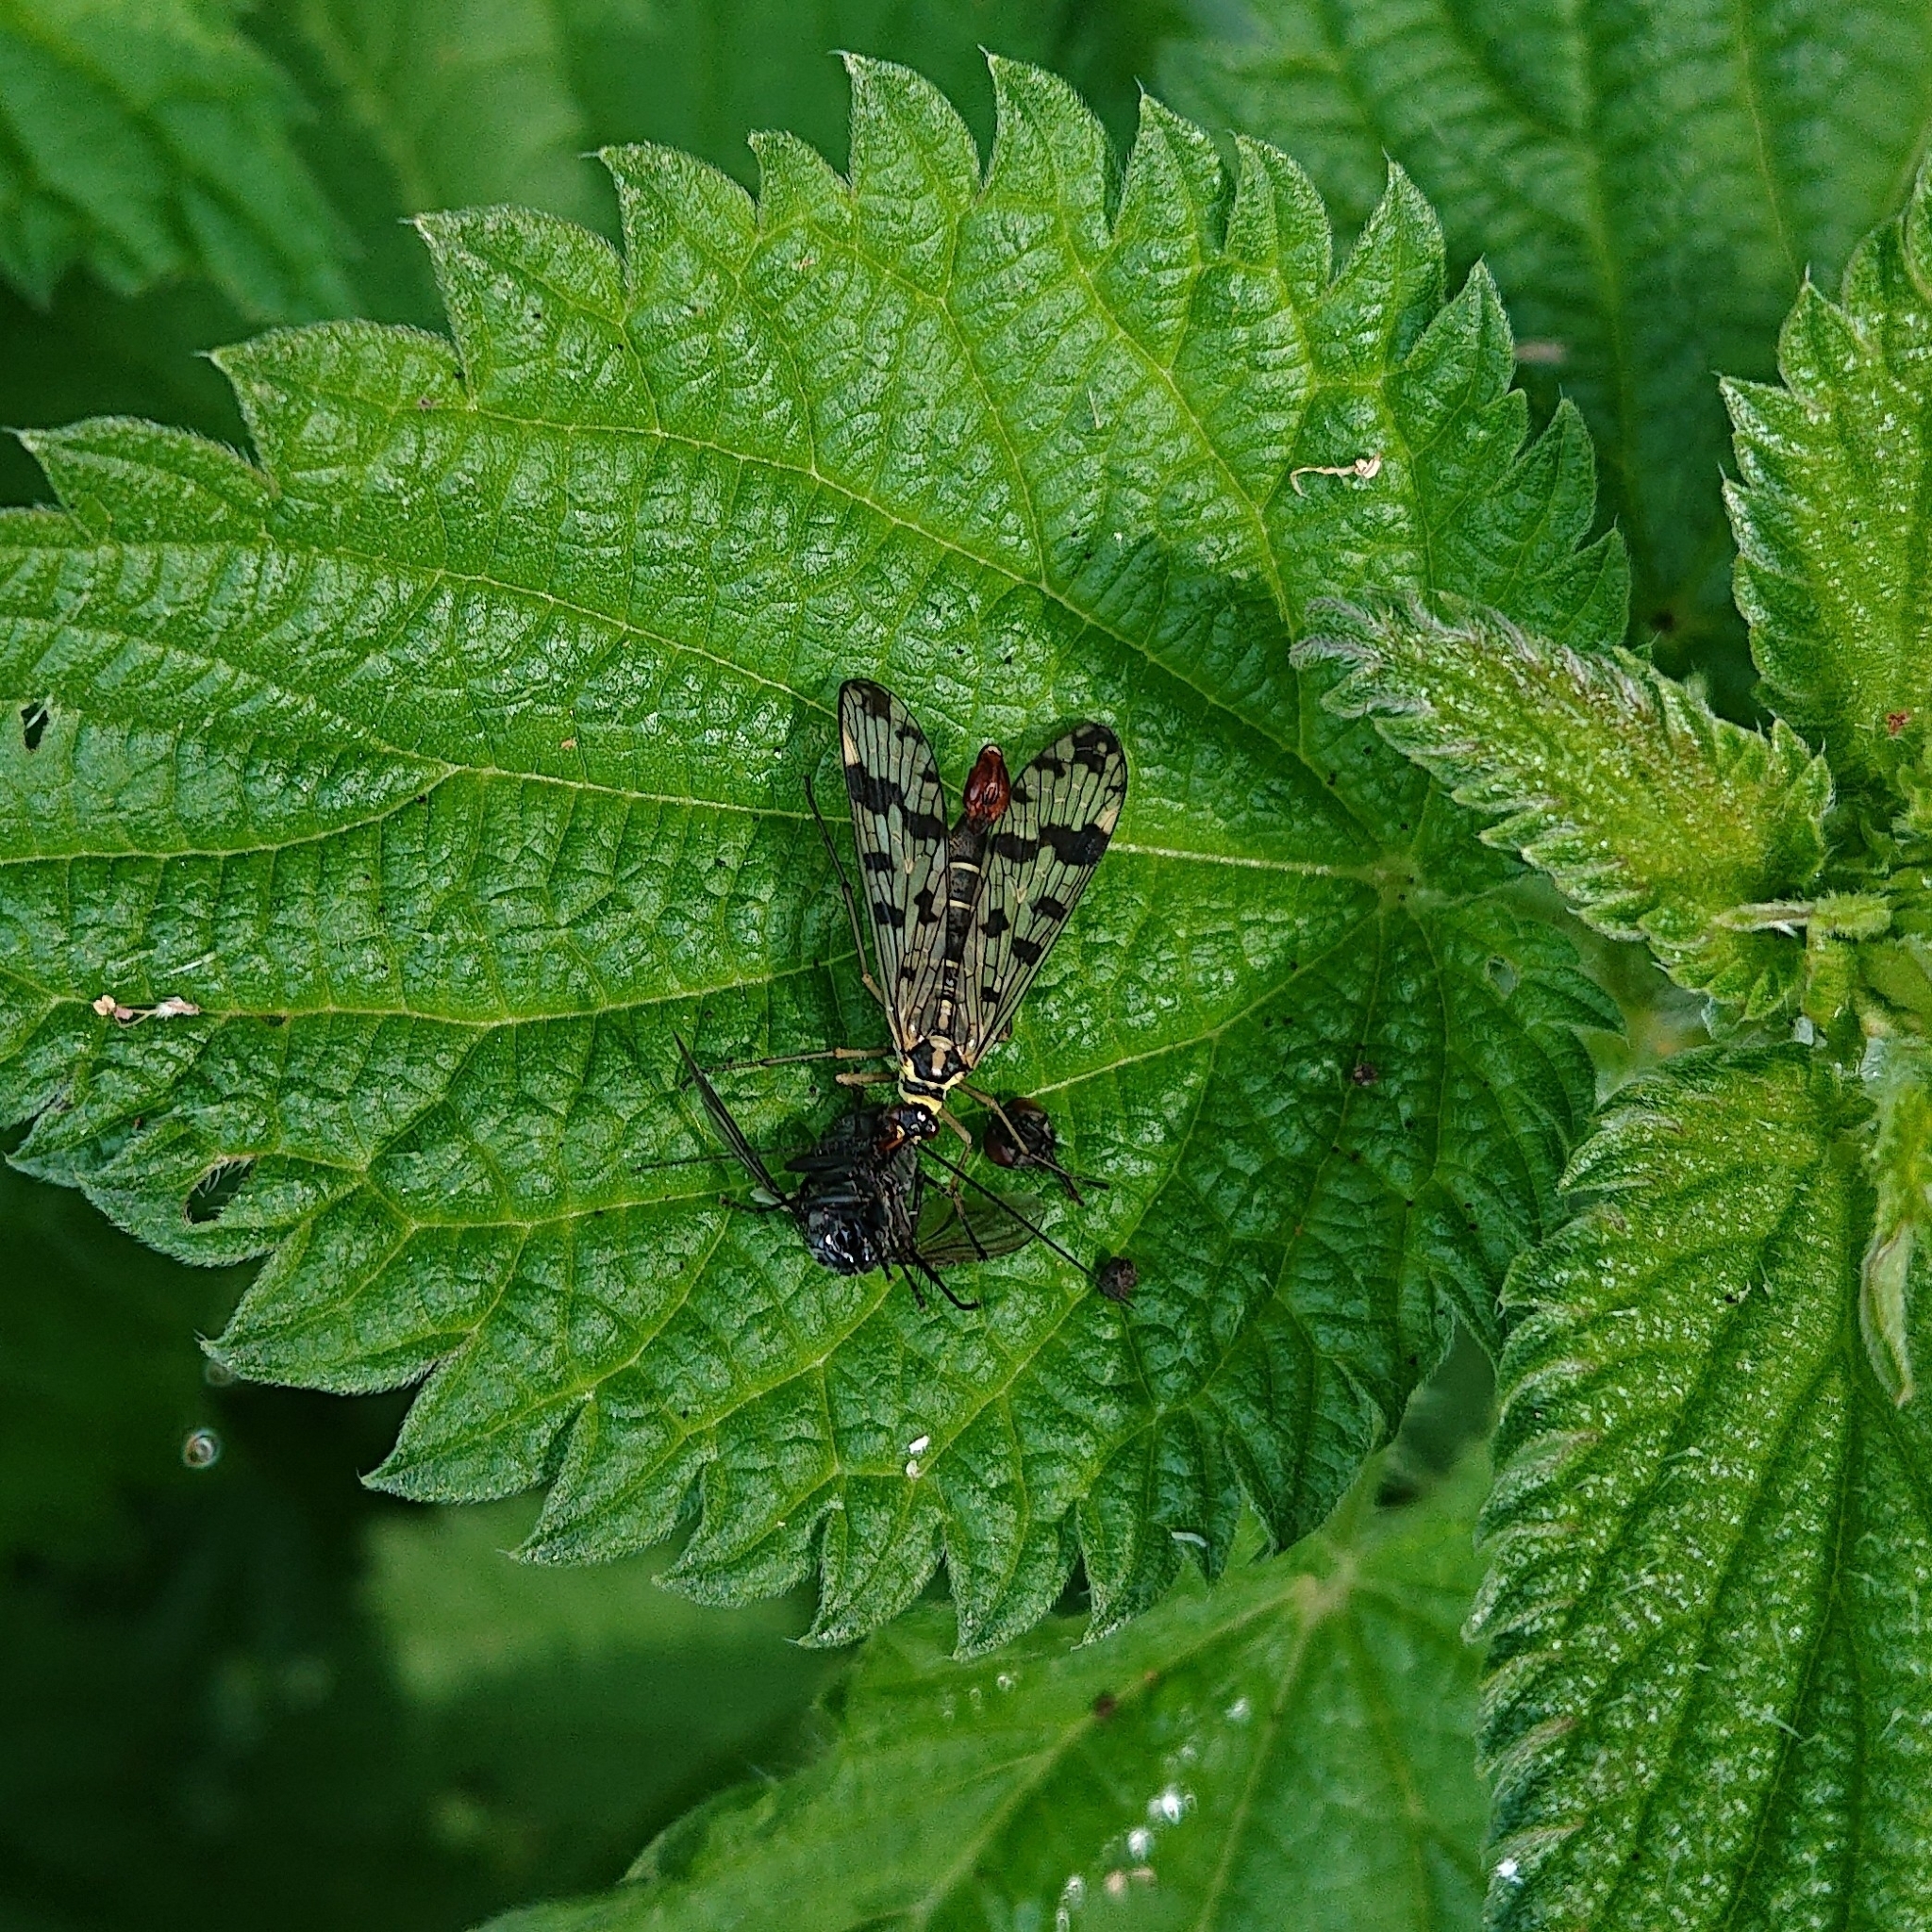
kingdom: Animalia
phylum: Arthropoda
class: Insecta
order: Mecoptera
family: Panorpidae
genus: Panorpa
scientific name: Panorpa communis
